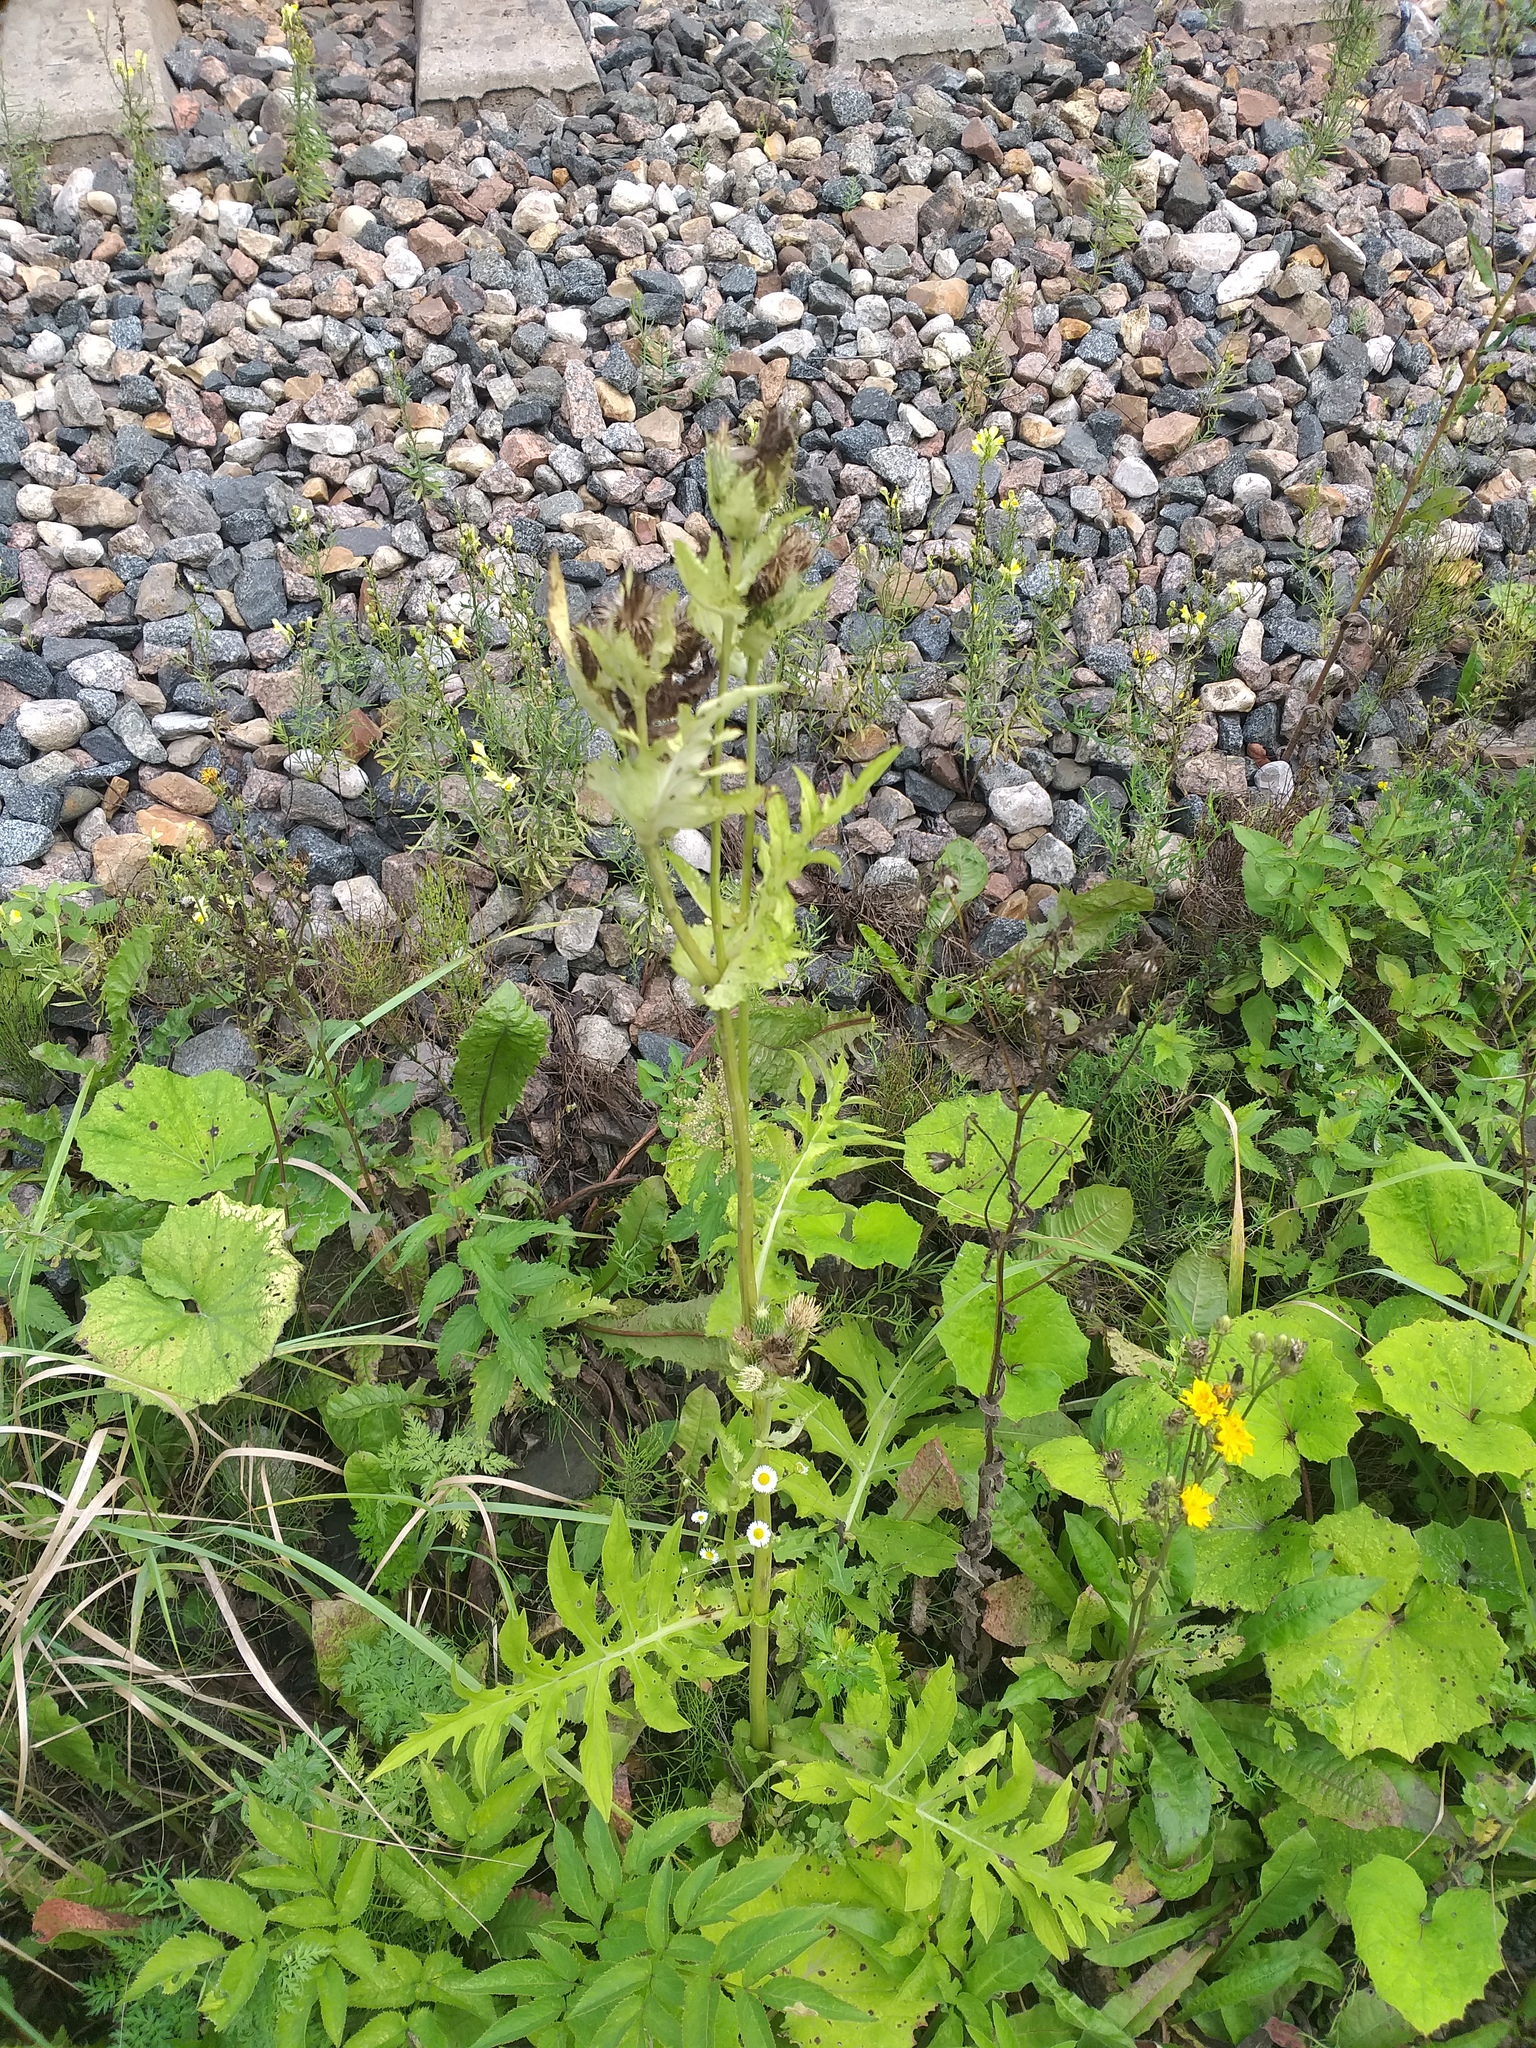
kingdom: Plantae
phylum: Tracheophyta
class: Magnoliopsida
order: Asterales
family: Asteraceae
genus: Cirsium
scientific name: Cirsium oleraceum
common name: Cabbage thistle
